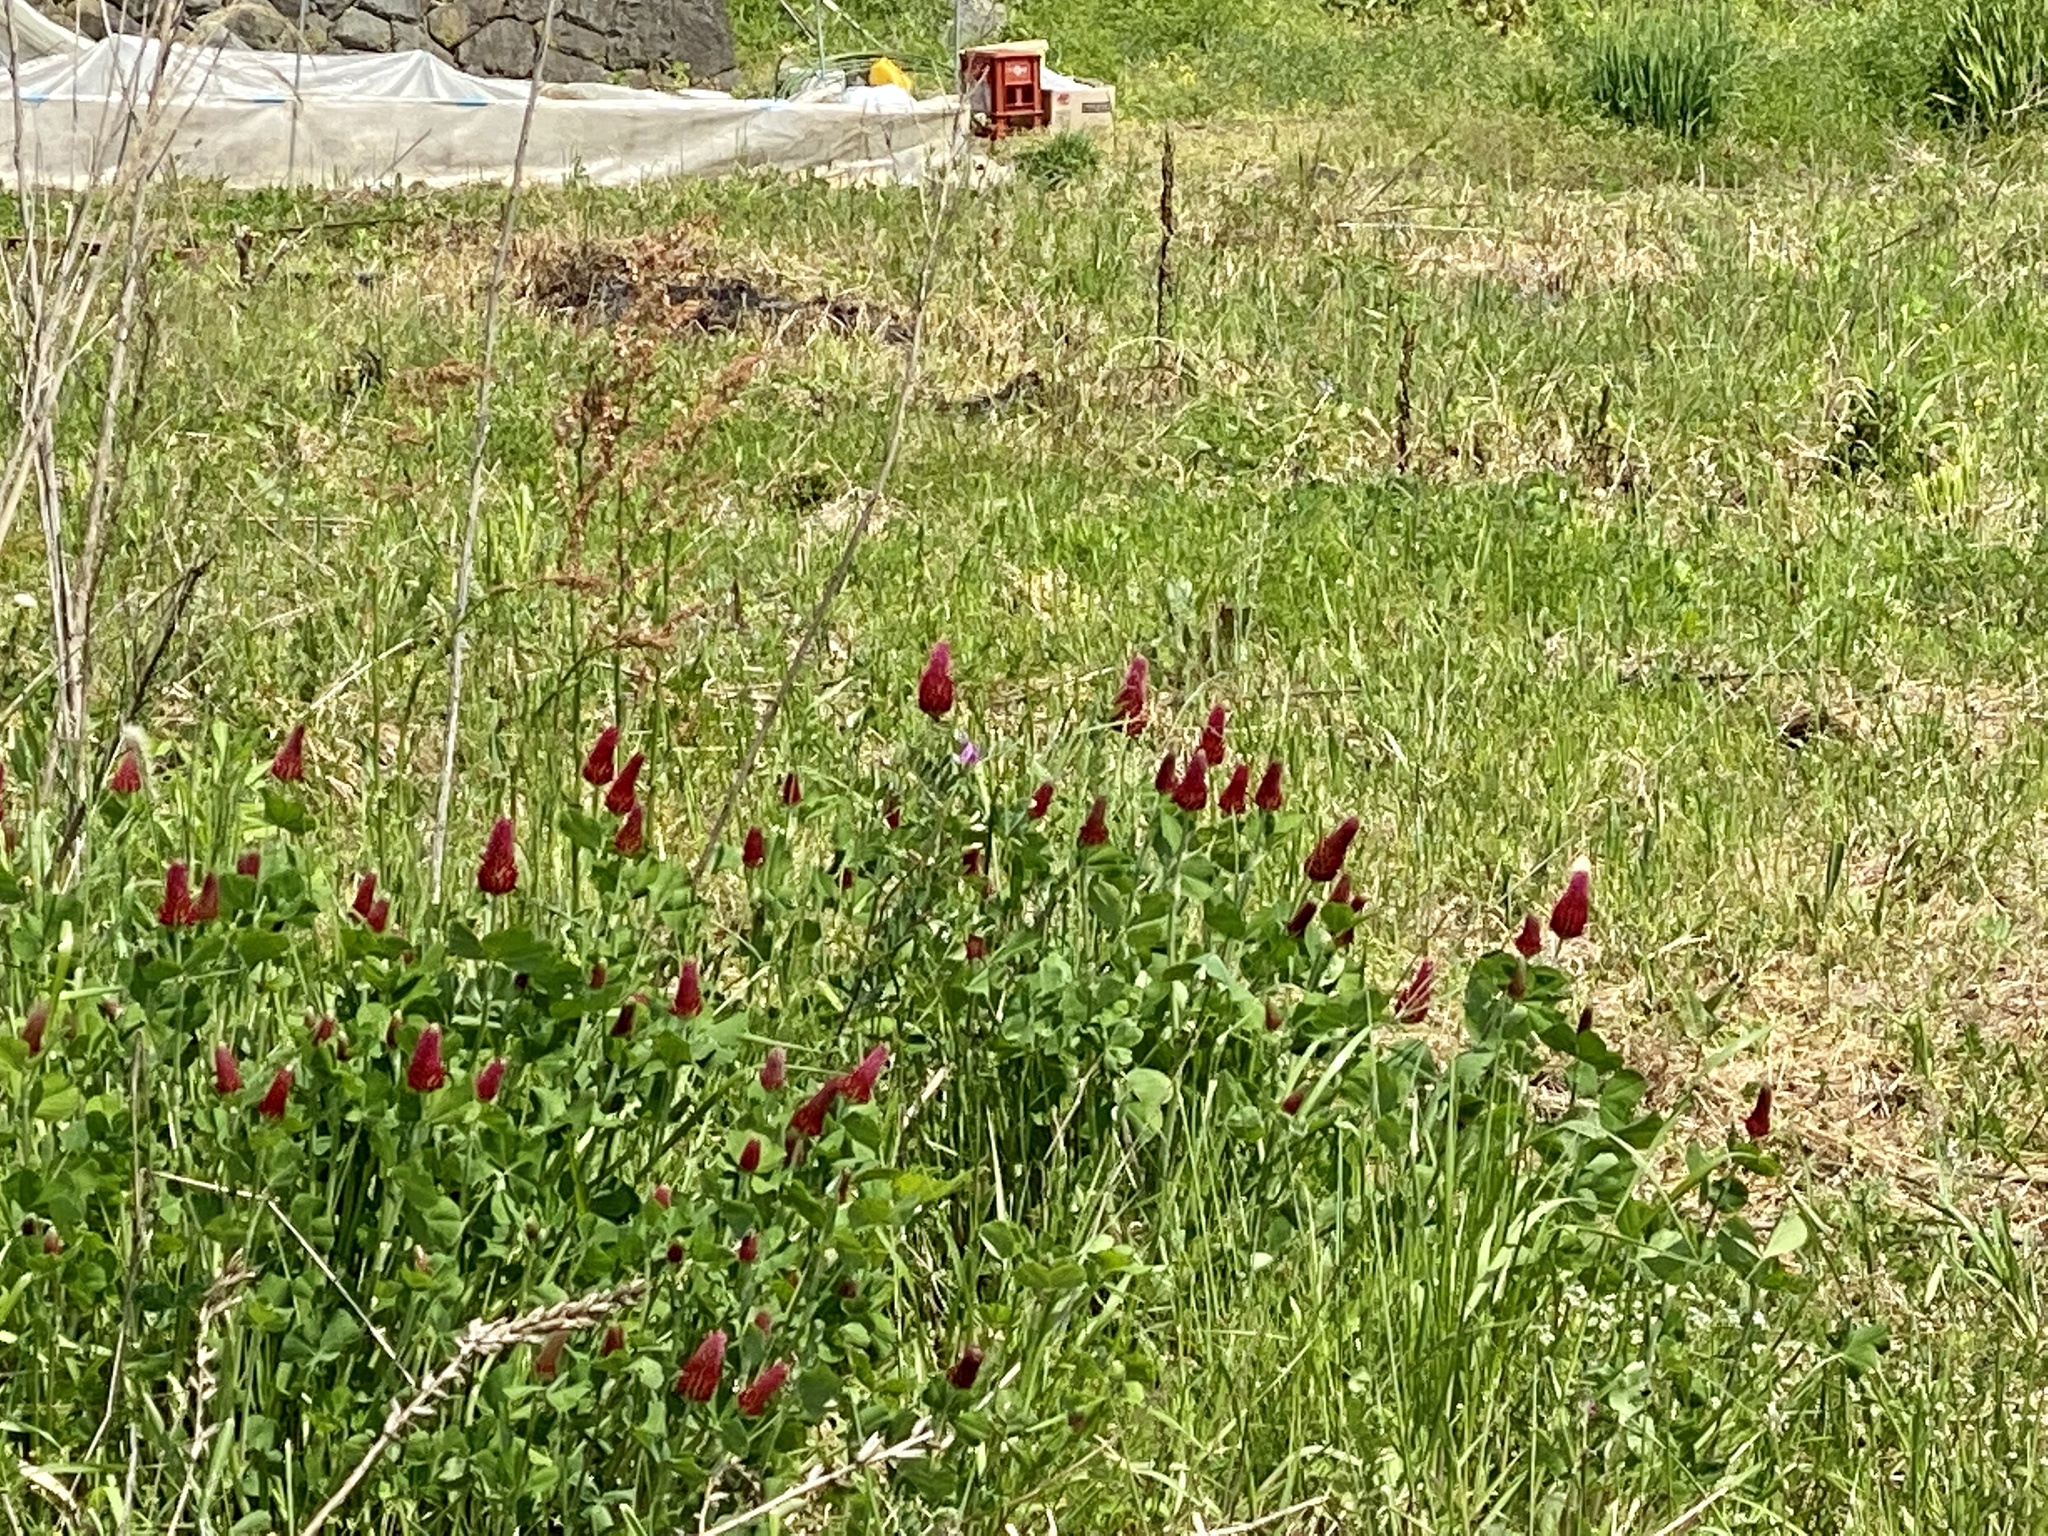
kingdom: Plantae
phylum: Tracheophyta
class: Magnoliopsida
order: Fabales
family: Fabaceae
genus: Trifolium
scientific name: Trifolium incarnatum
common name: Crimson clover
